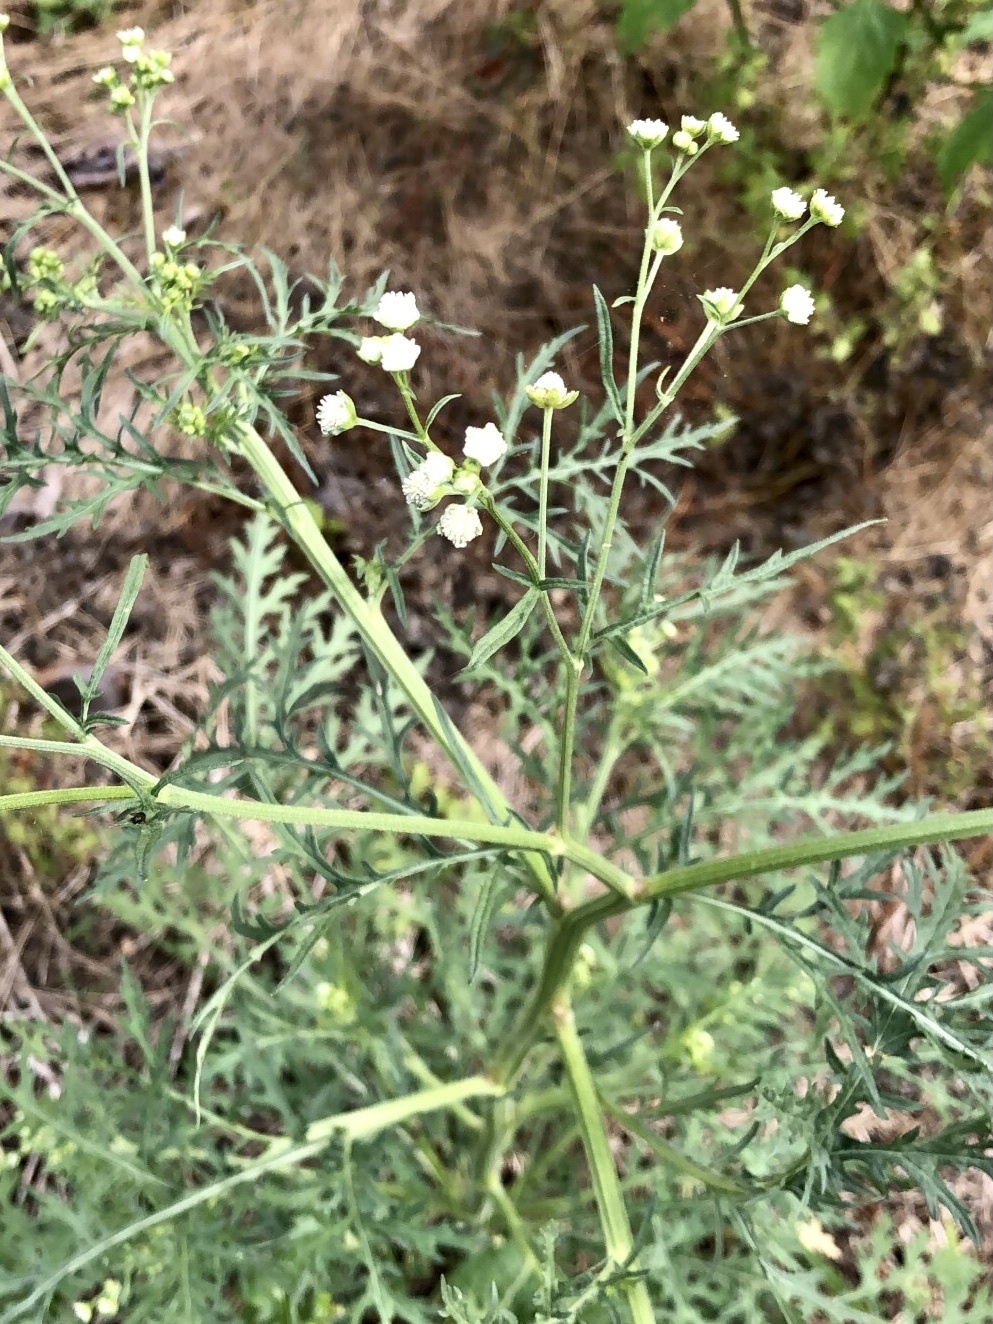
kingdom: Plantae
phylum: Tracheophyta
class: Magnoliopsida
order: Asterales
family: Asteraceae
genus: Parthenium
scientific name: Parthenium hysterophorus
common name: Santa maria feverfew
